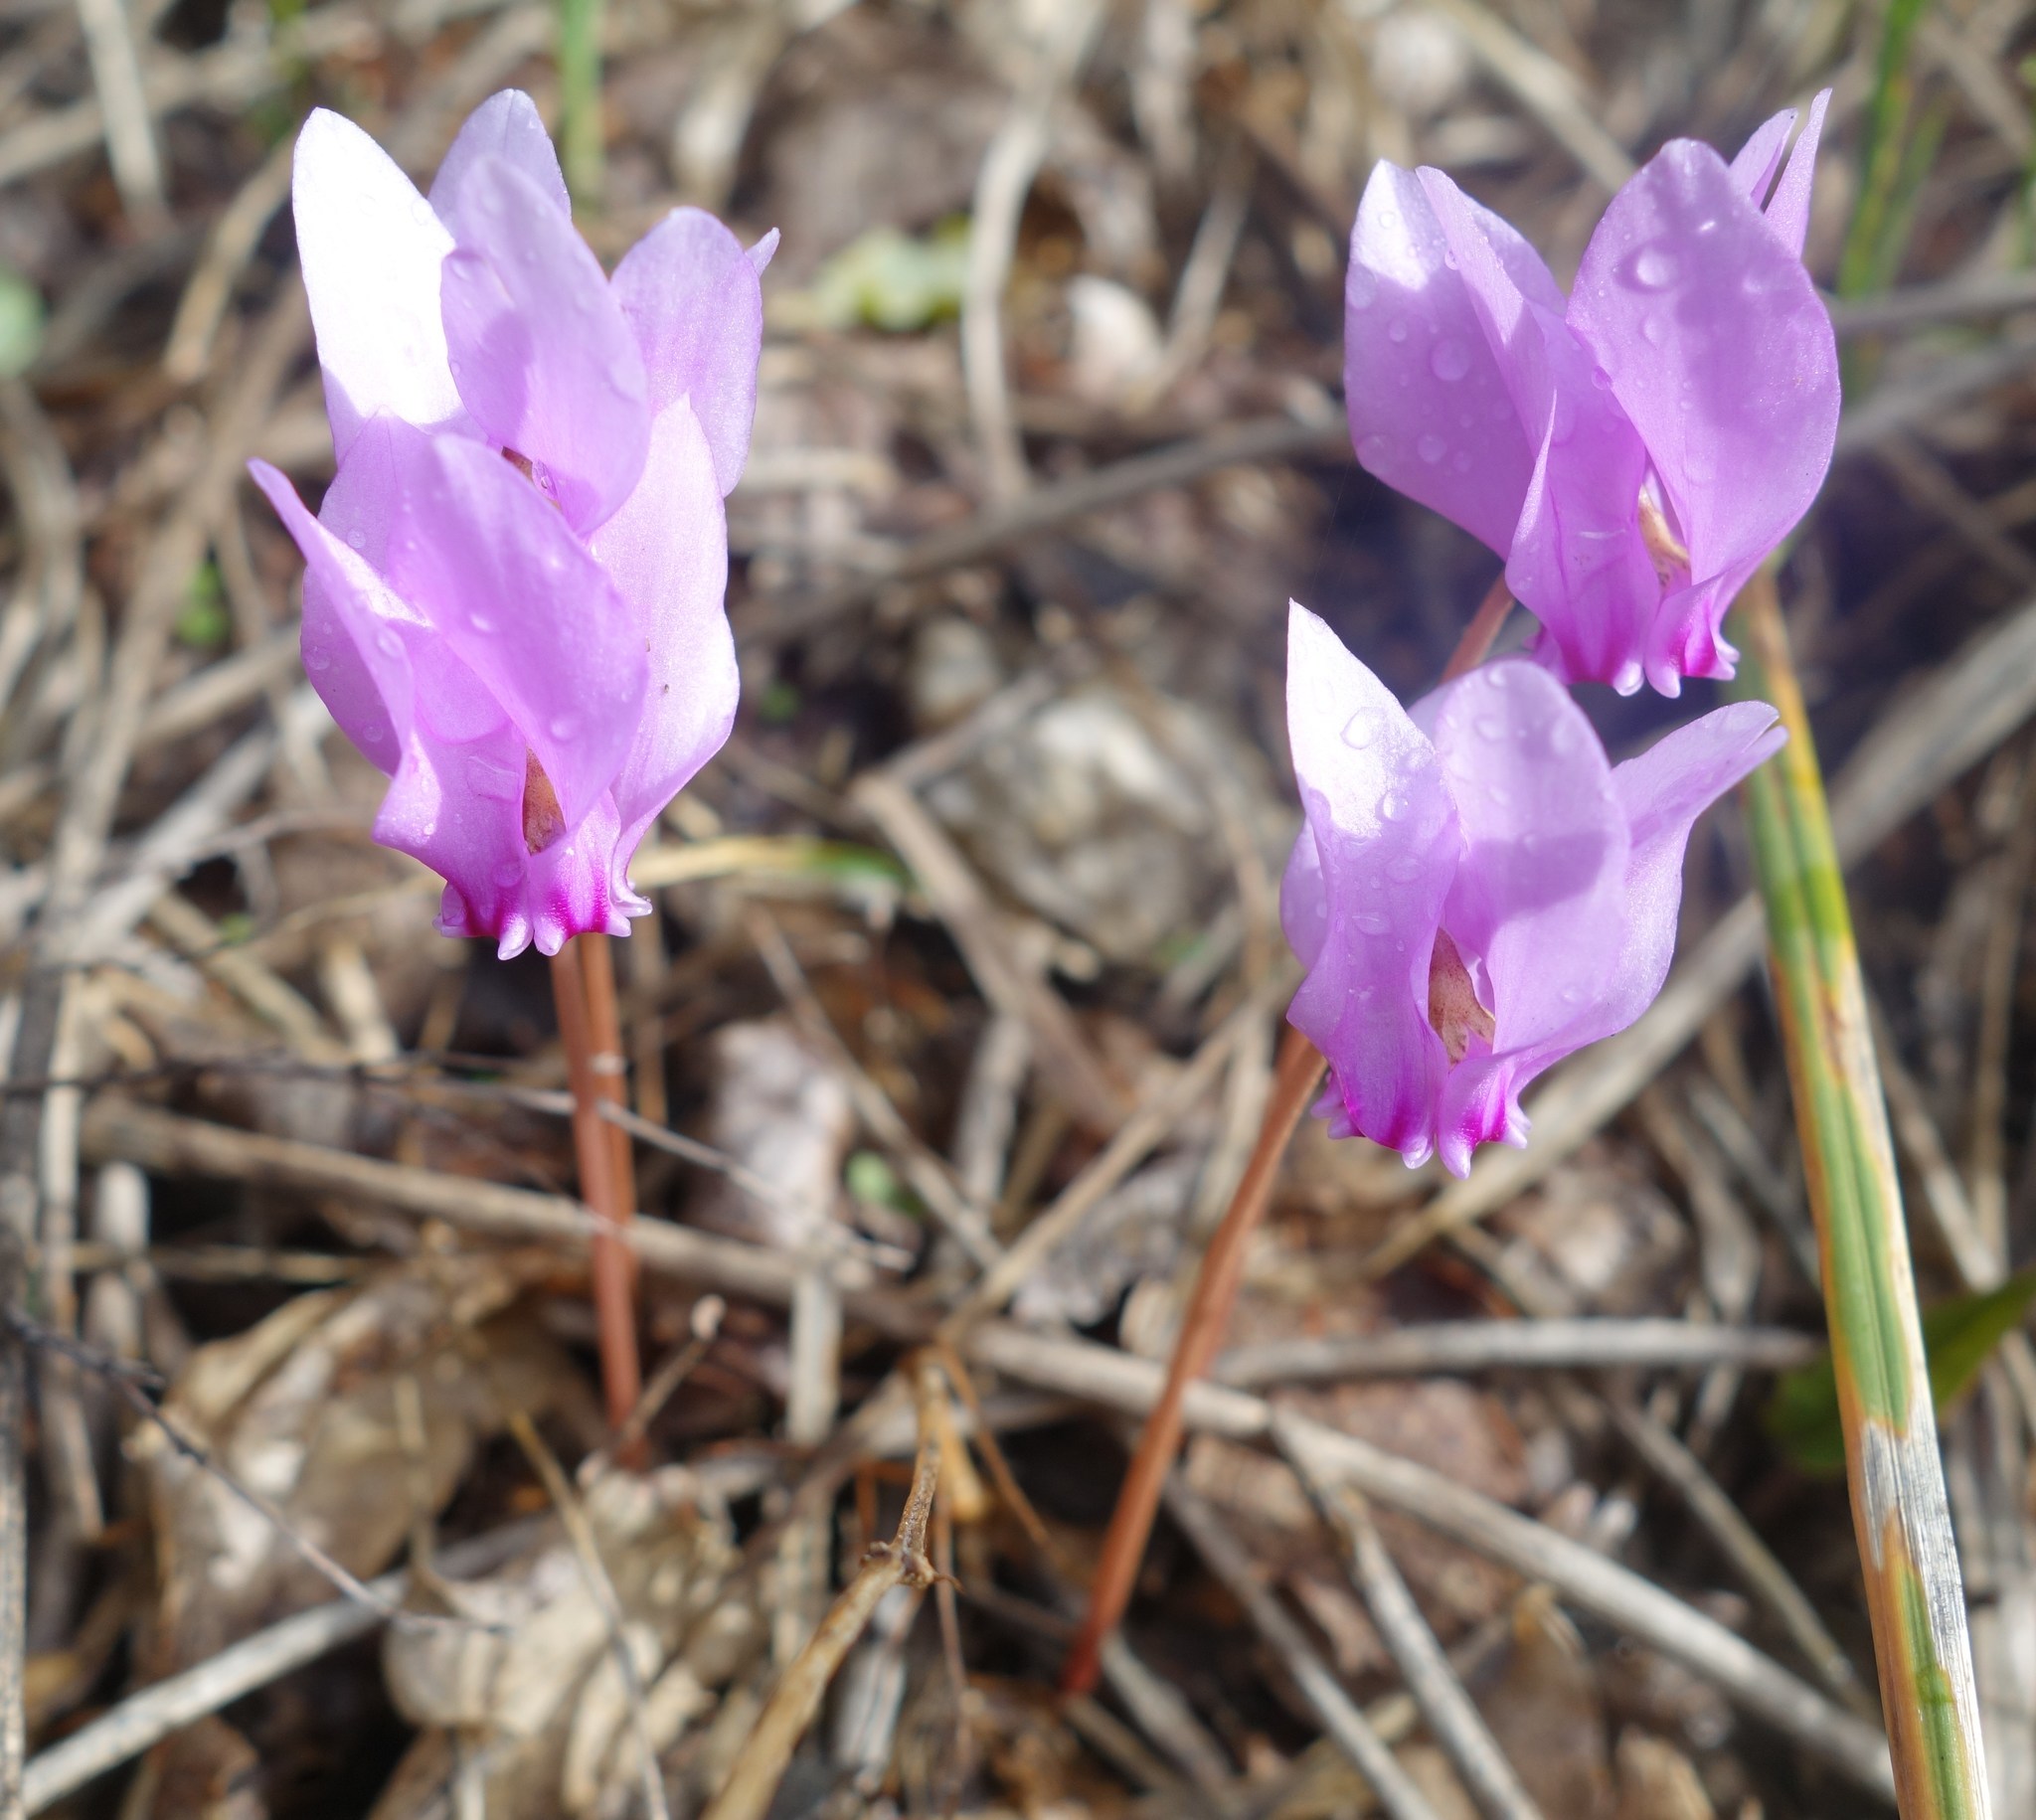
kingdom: Plantae
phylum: Tracheophyta
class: Magnoliopsida
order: Ericales
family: Primulaceae
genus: Cyclamen
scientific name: Cyclamen hederifolium
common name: Sowbread
